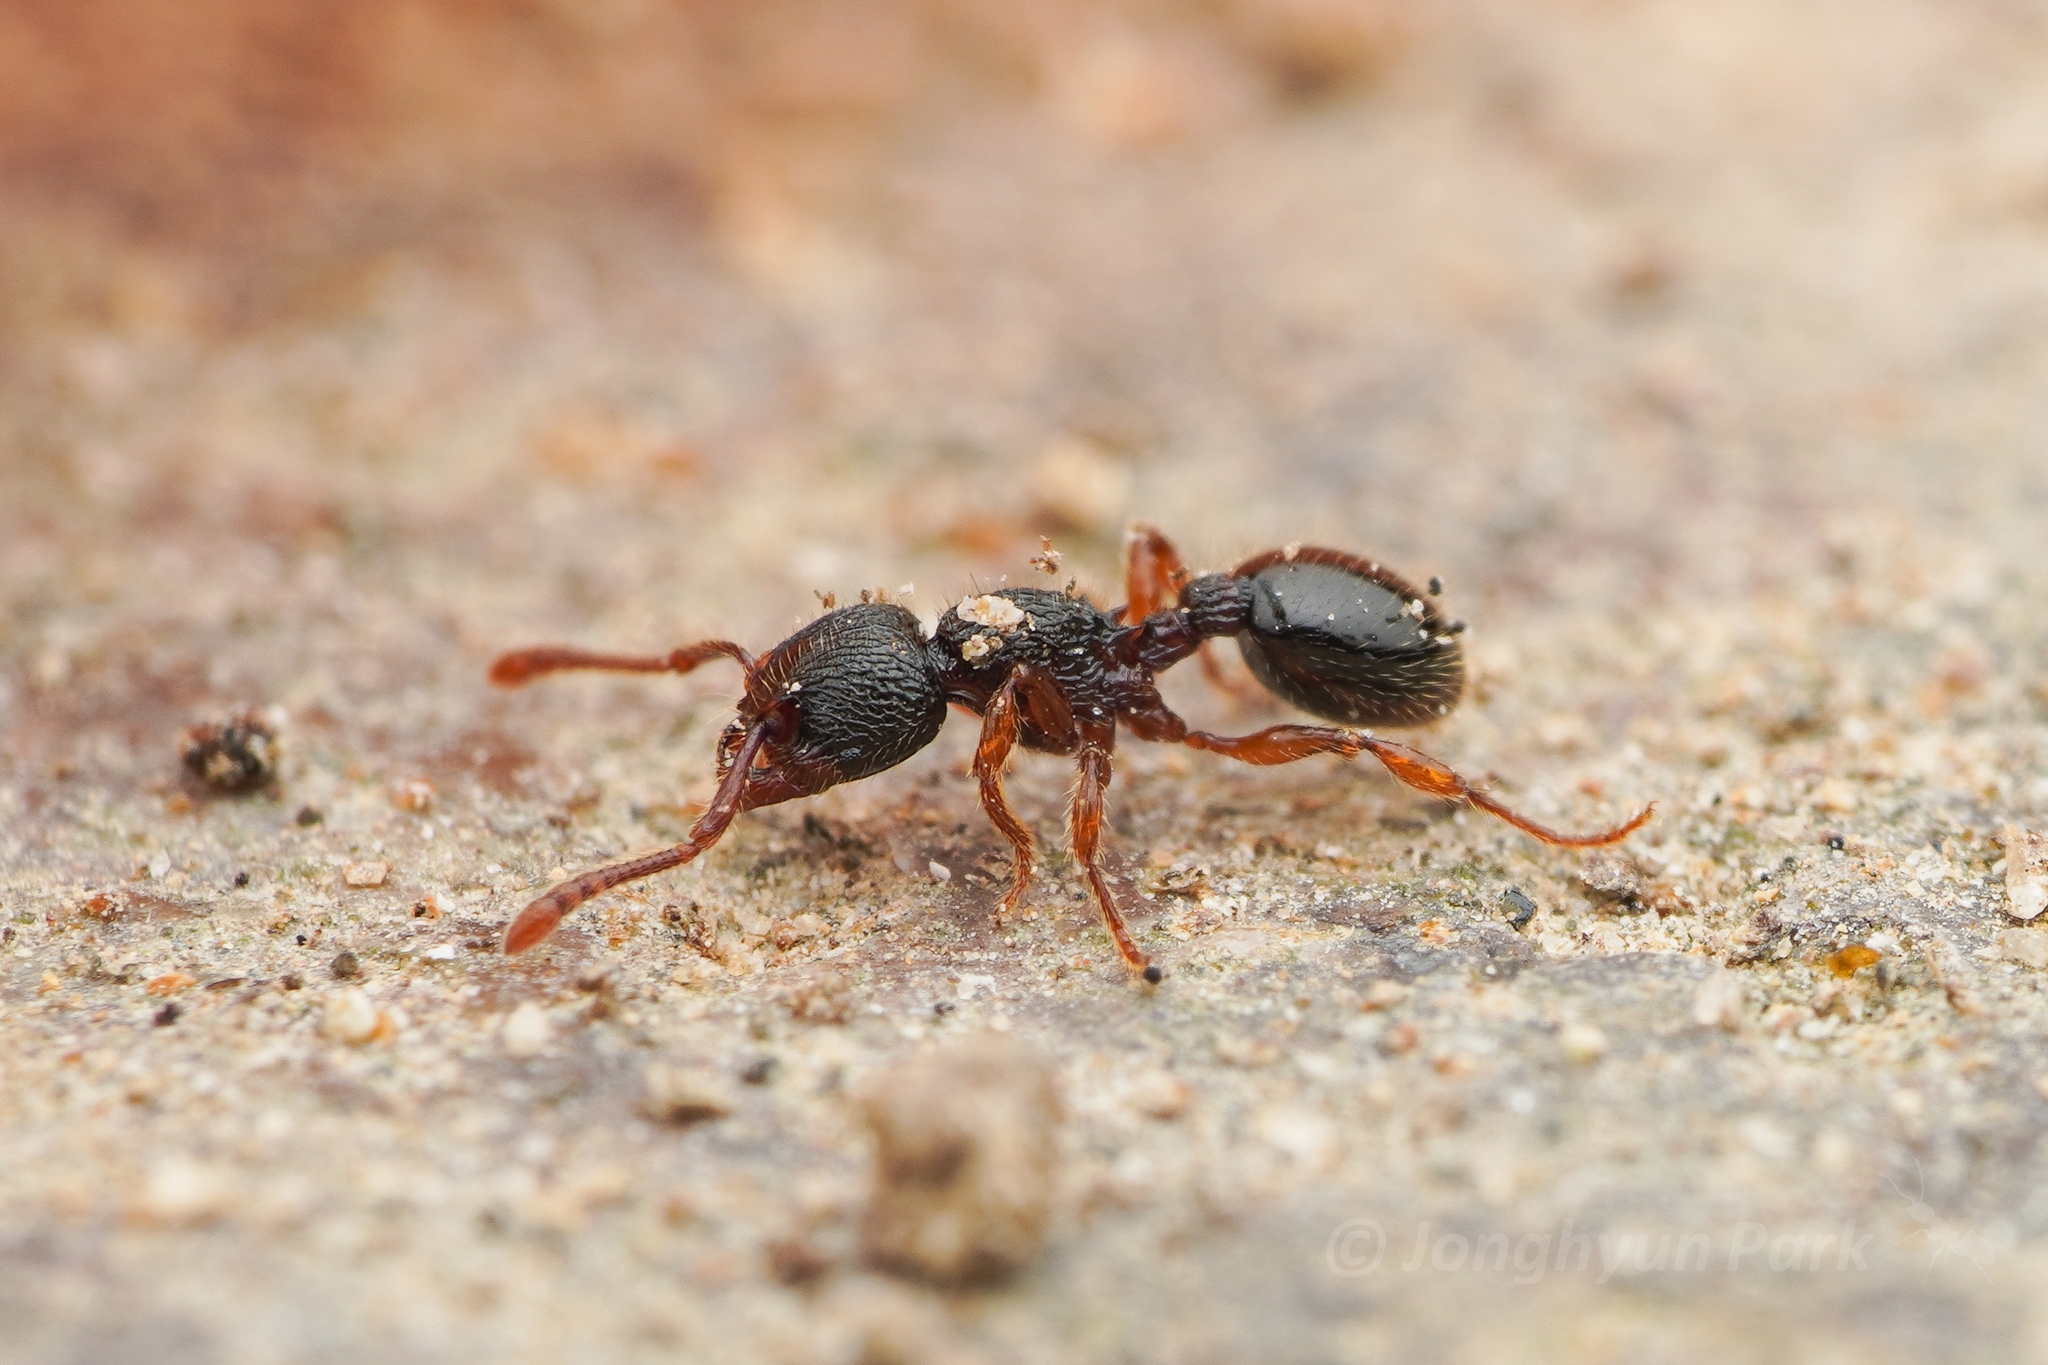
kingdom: Animalia
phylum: Arthropoda
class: Insecta
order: Hymenoptera
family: Formicidae
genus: Myrmecina
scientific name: Myrmecina nipponica
